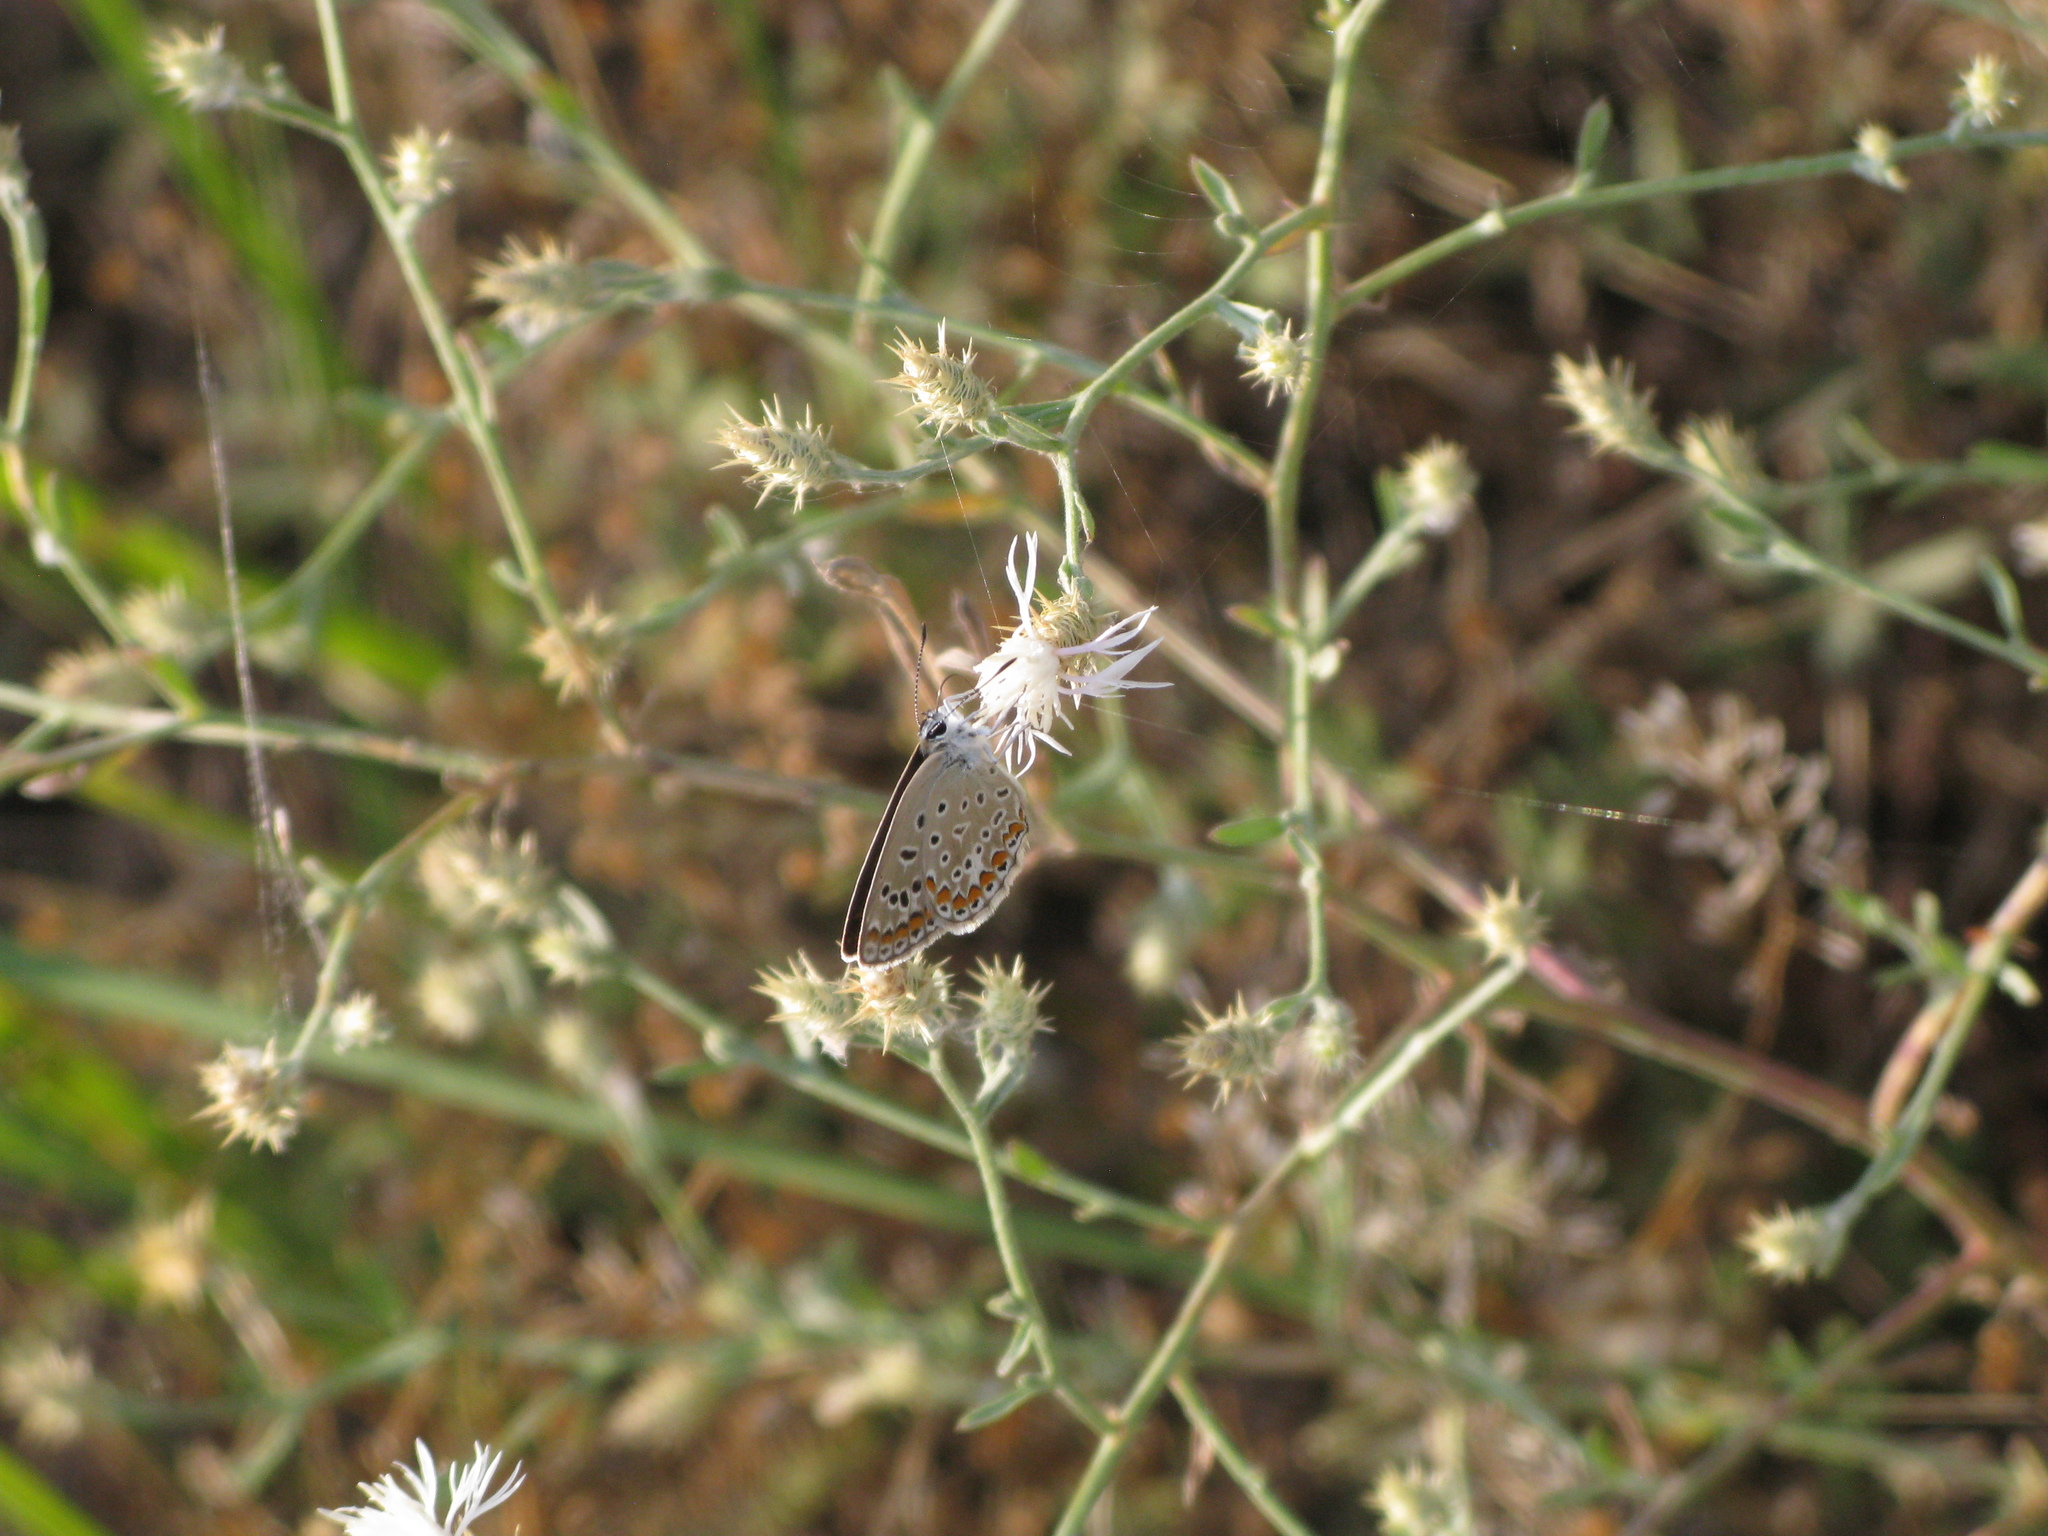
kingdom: Animalia
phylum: Arthropoda
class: Insecta
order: Lepidoptera
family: Lycaenidae
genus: Polyommatus
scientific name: Polyommatus icarus
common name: Common blue
